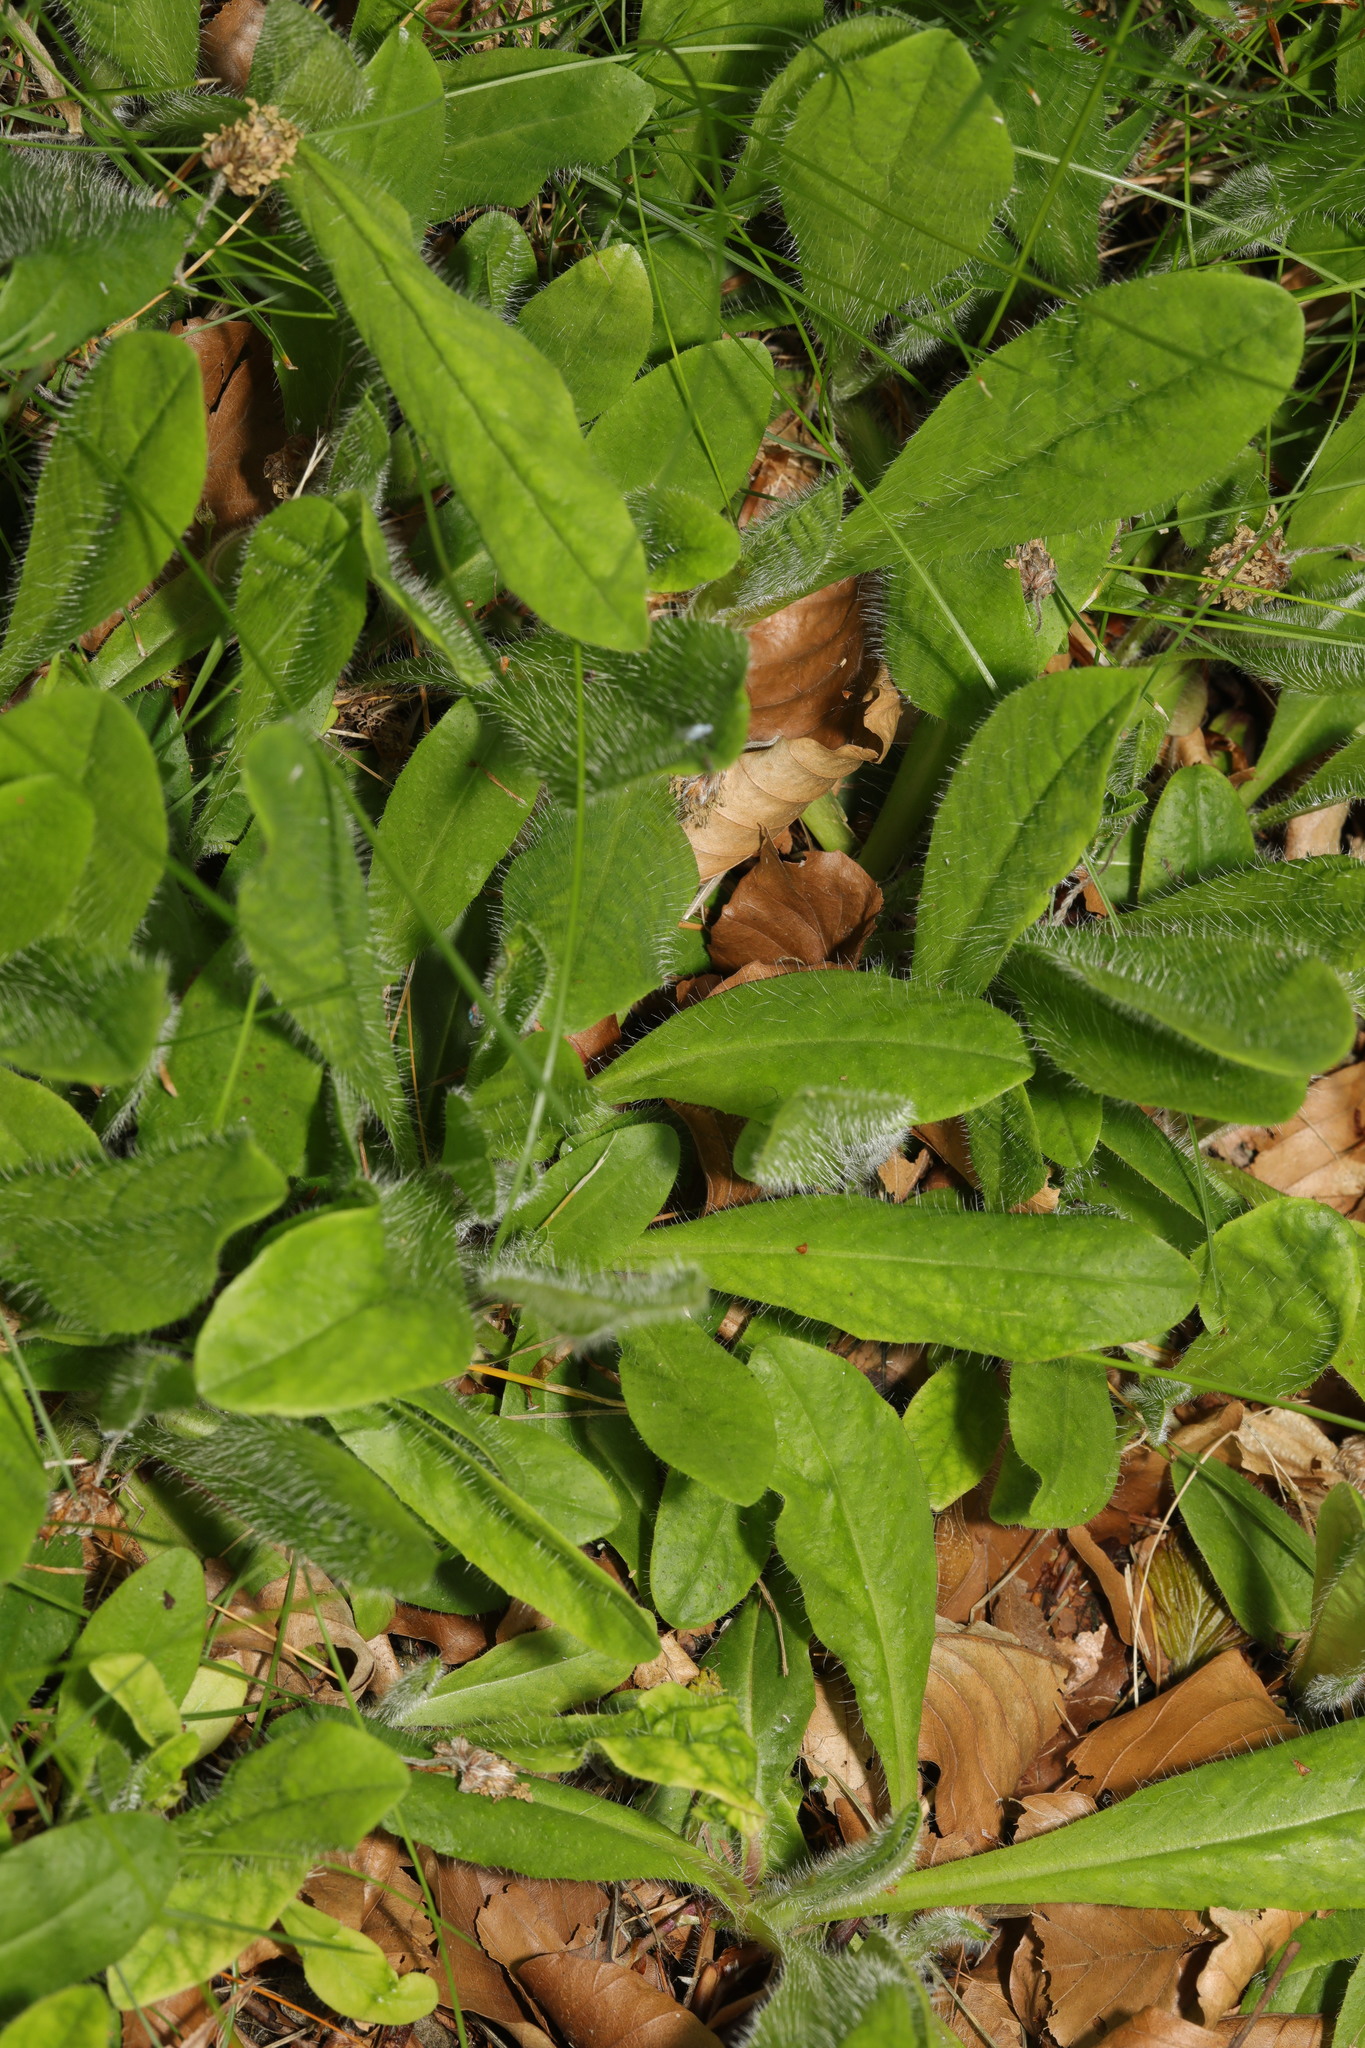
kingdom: Plantae
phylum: Tracheophyta
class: Magnoliopsida
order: Asterales
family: Asteraceae
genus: Pilosella
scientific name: Pilosella aurantiaca
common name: Fox-and-cubs
